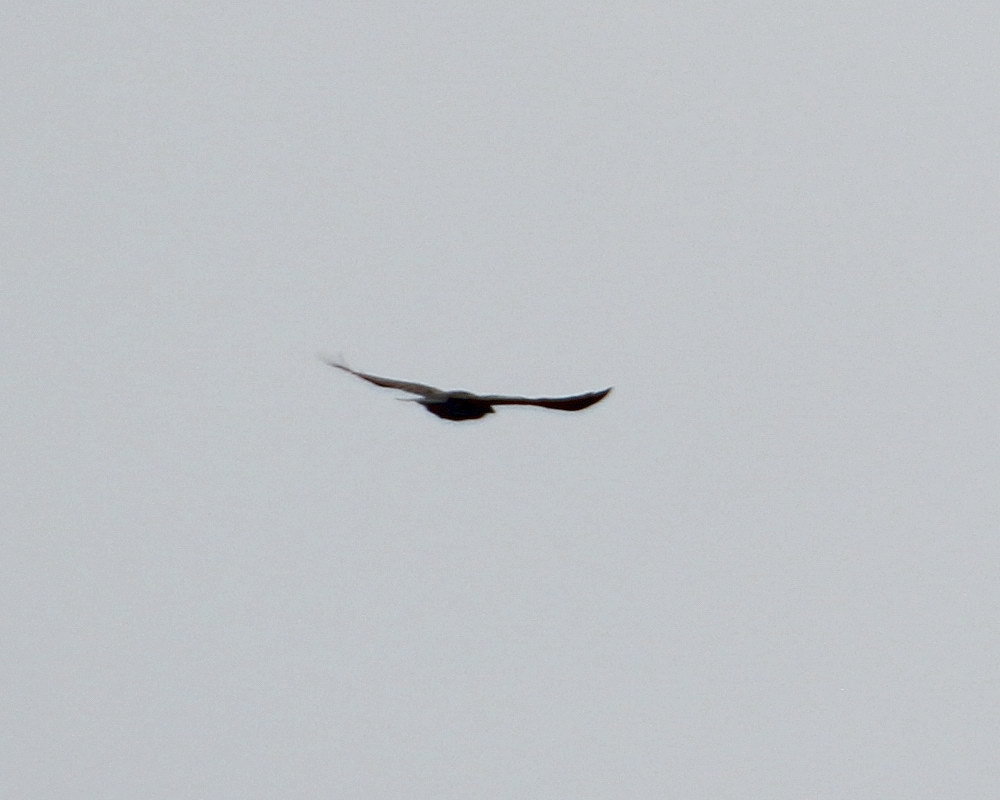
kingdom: Animalia
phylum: Chordata
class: Aves
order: Passeriformes
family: Corvidae
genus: Corvus
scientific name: Corvus corax
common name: Common raven
